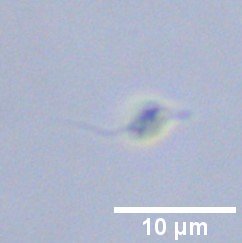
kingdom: Protozoa
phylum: Euglenozoa
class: Kinetoplastea
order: Bodonida
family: Rhynchomonadidae
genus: Rhynchomonas
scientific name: Rhynchomonas nasuta
